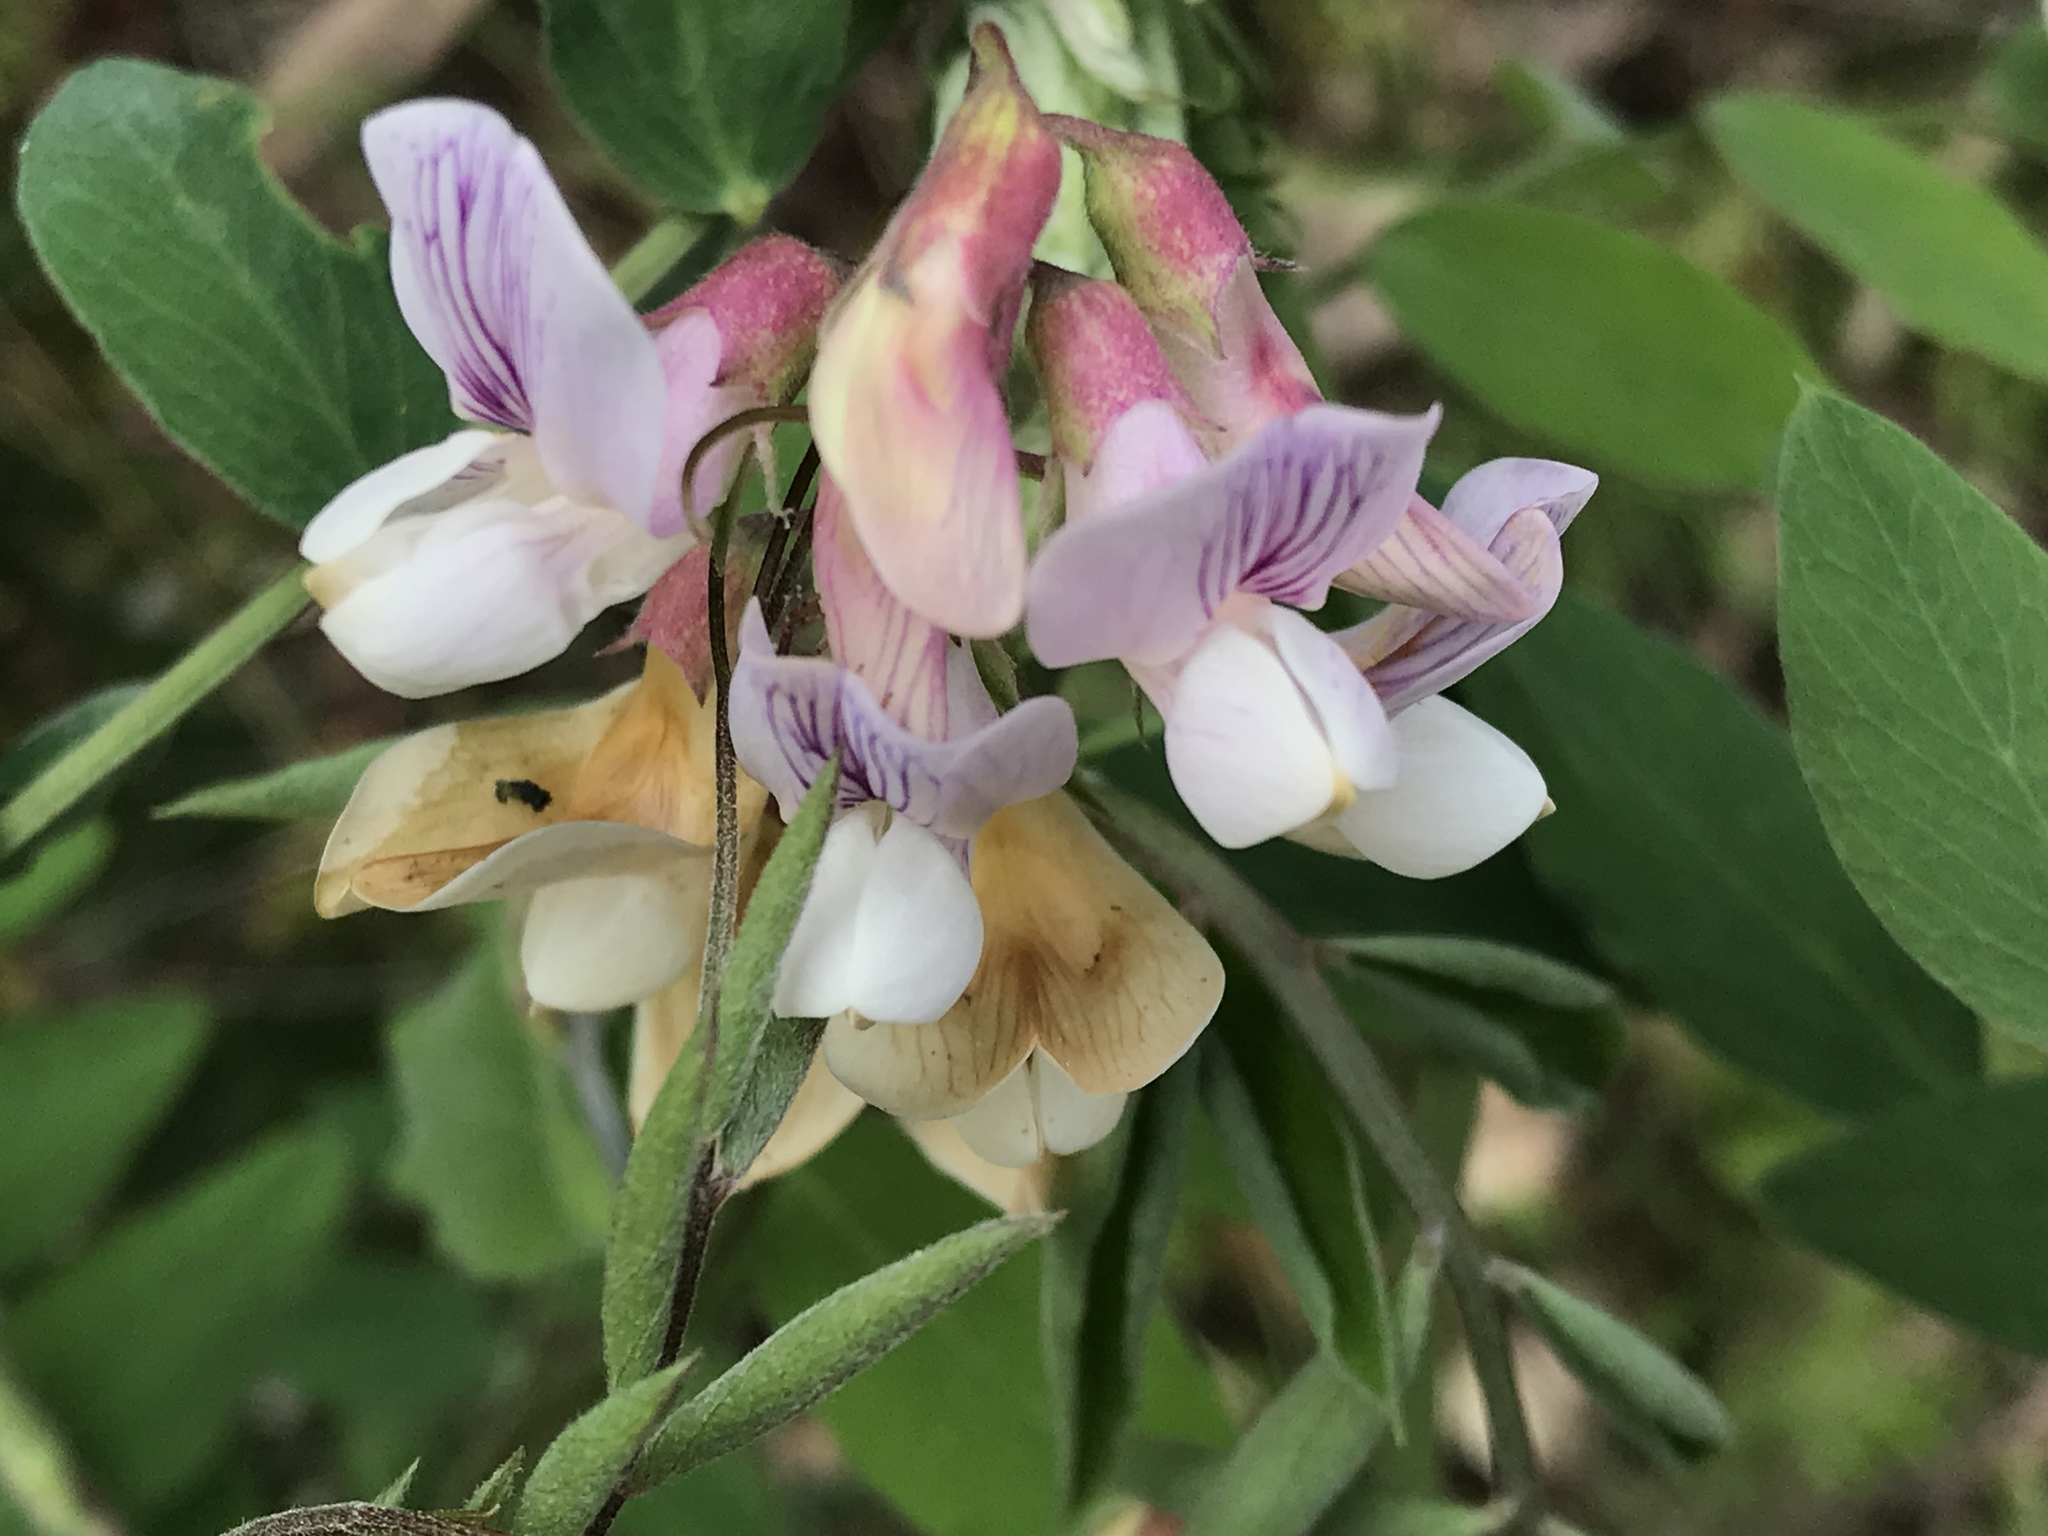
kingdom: Plantae
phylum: Tracheophyta
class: Magnoliopsida
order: Fabales
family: Fabaceae
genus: Lathyrus
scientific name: Lathyrus vestitus
